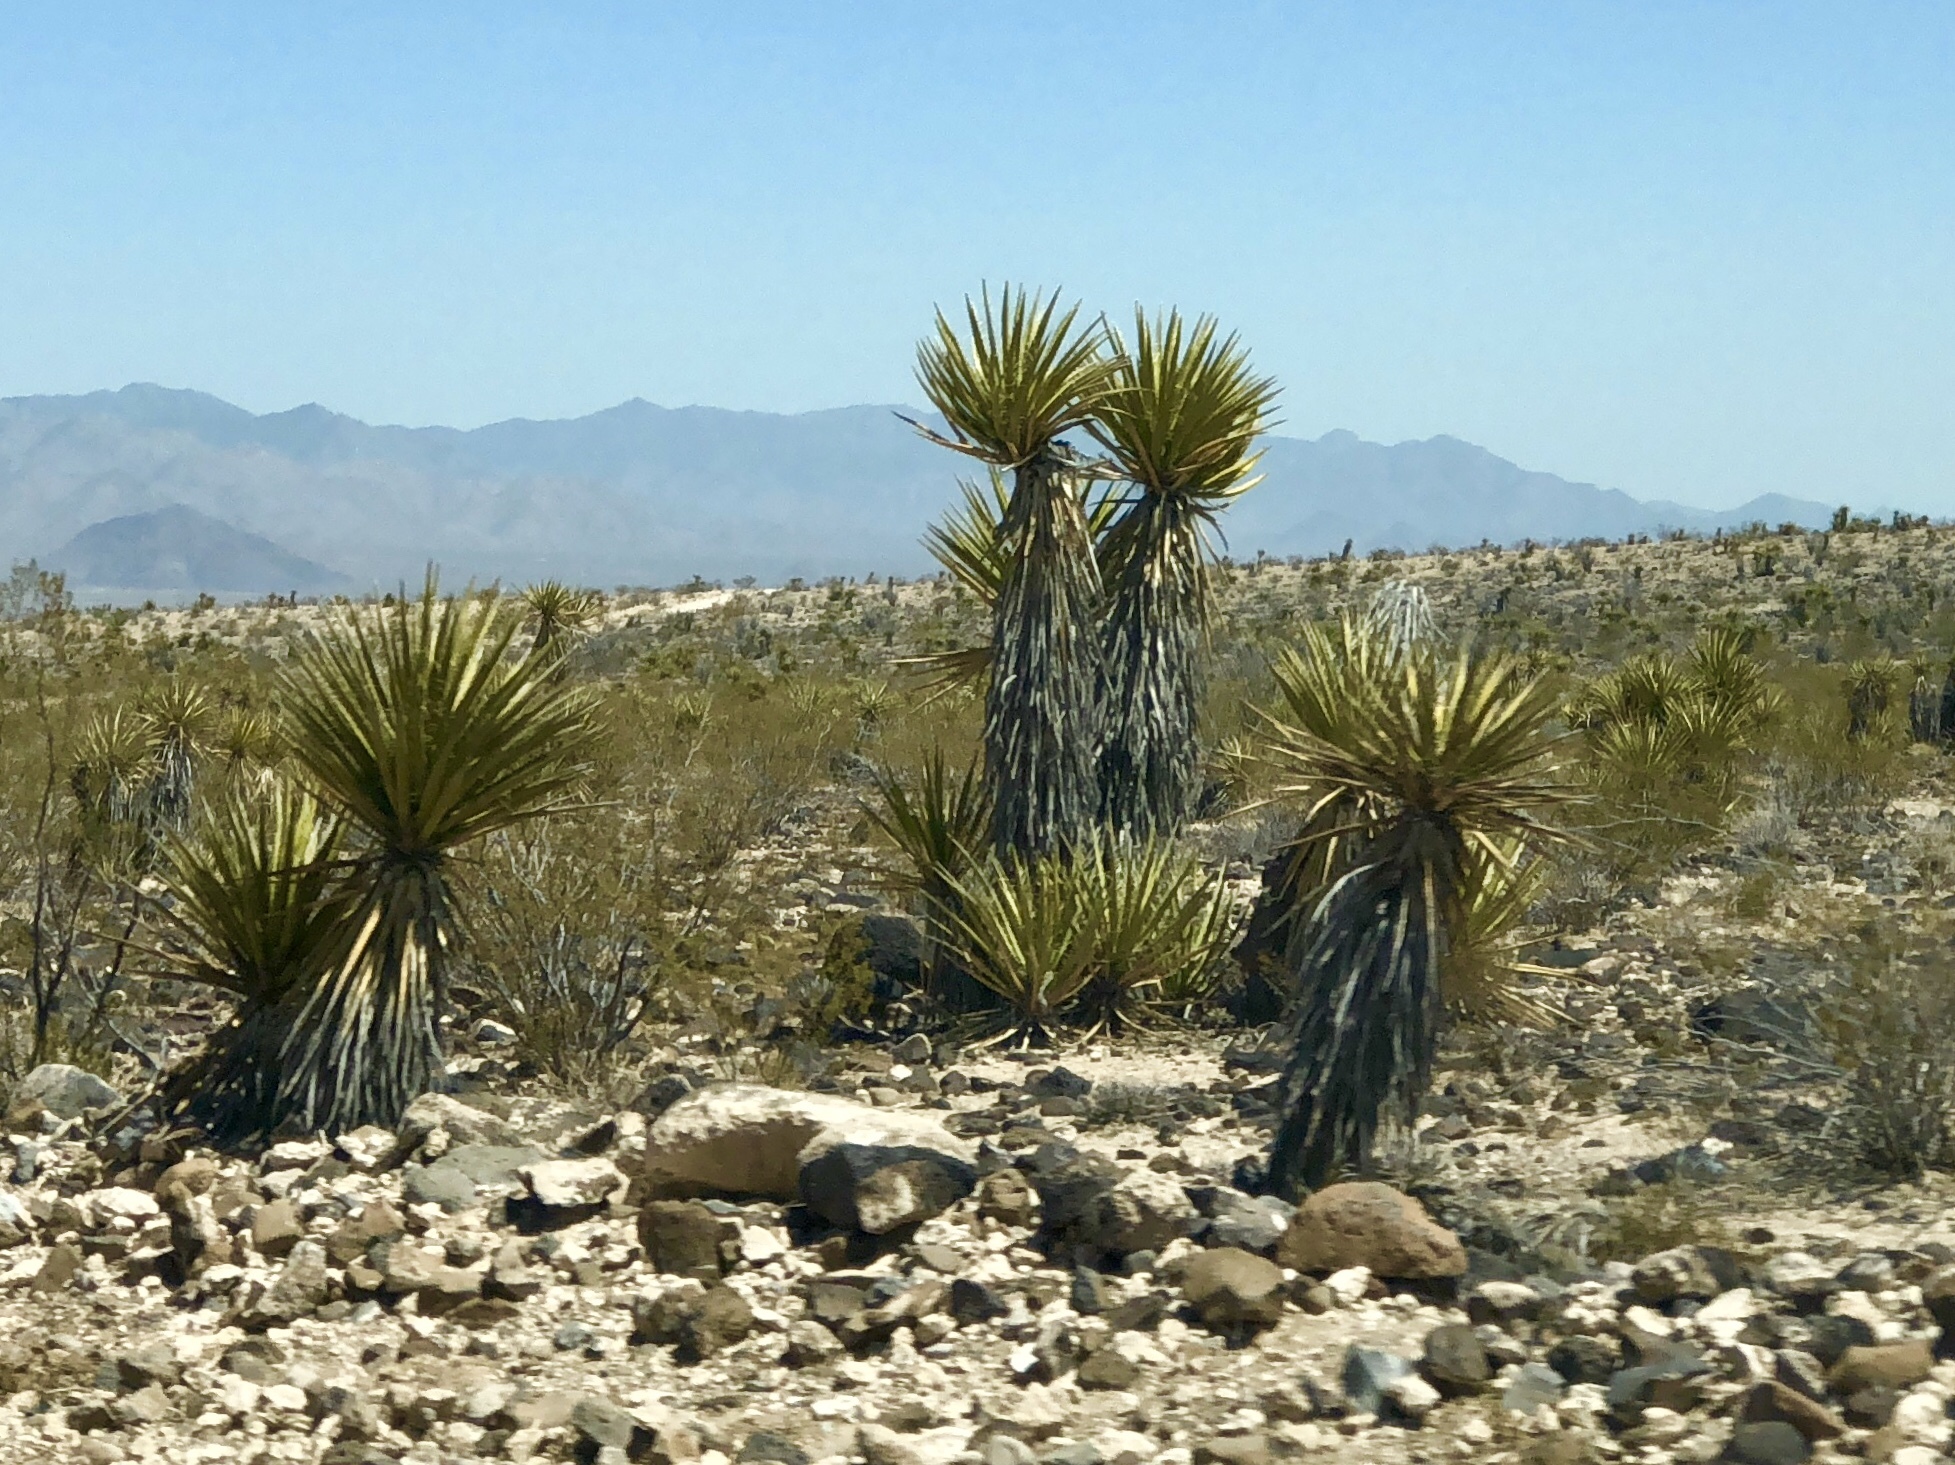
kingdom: Plantae
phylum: Tracheophyta
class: Liliopsida
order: Asparagales
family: Asparagaceae
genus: Yucca
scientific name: Yucca schidigera
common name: Mojave yucca
